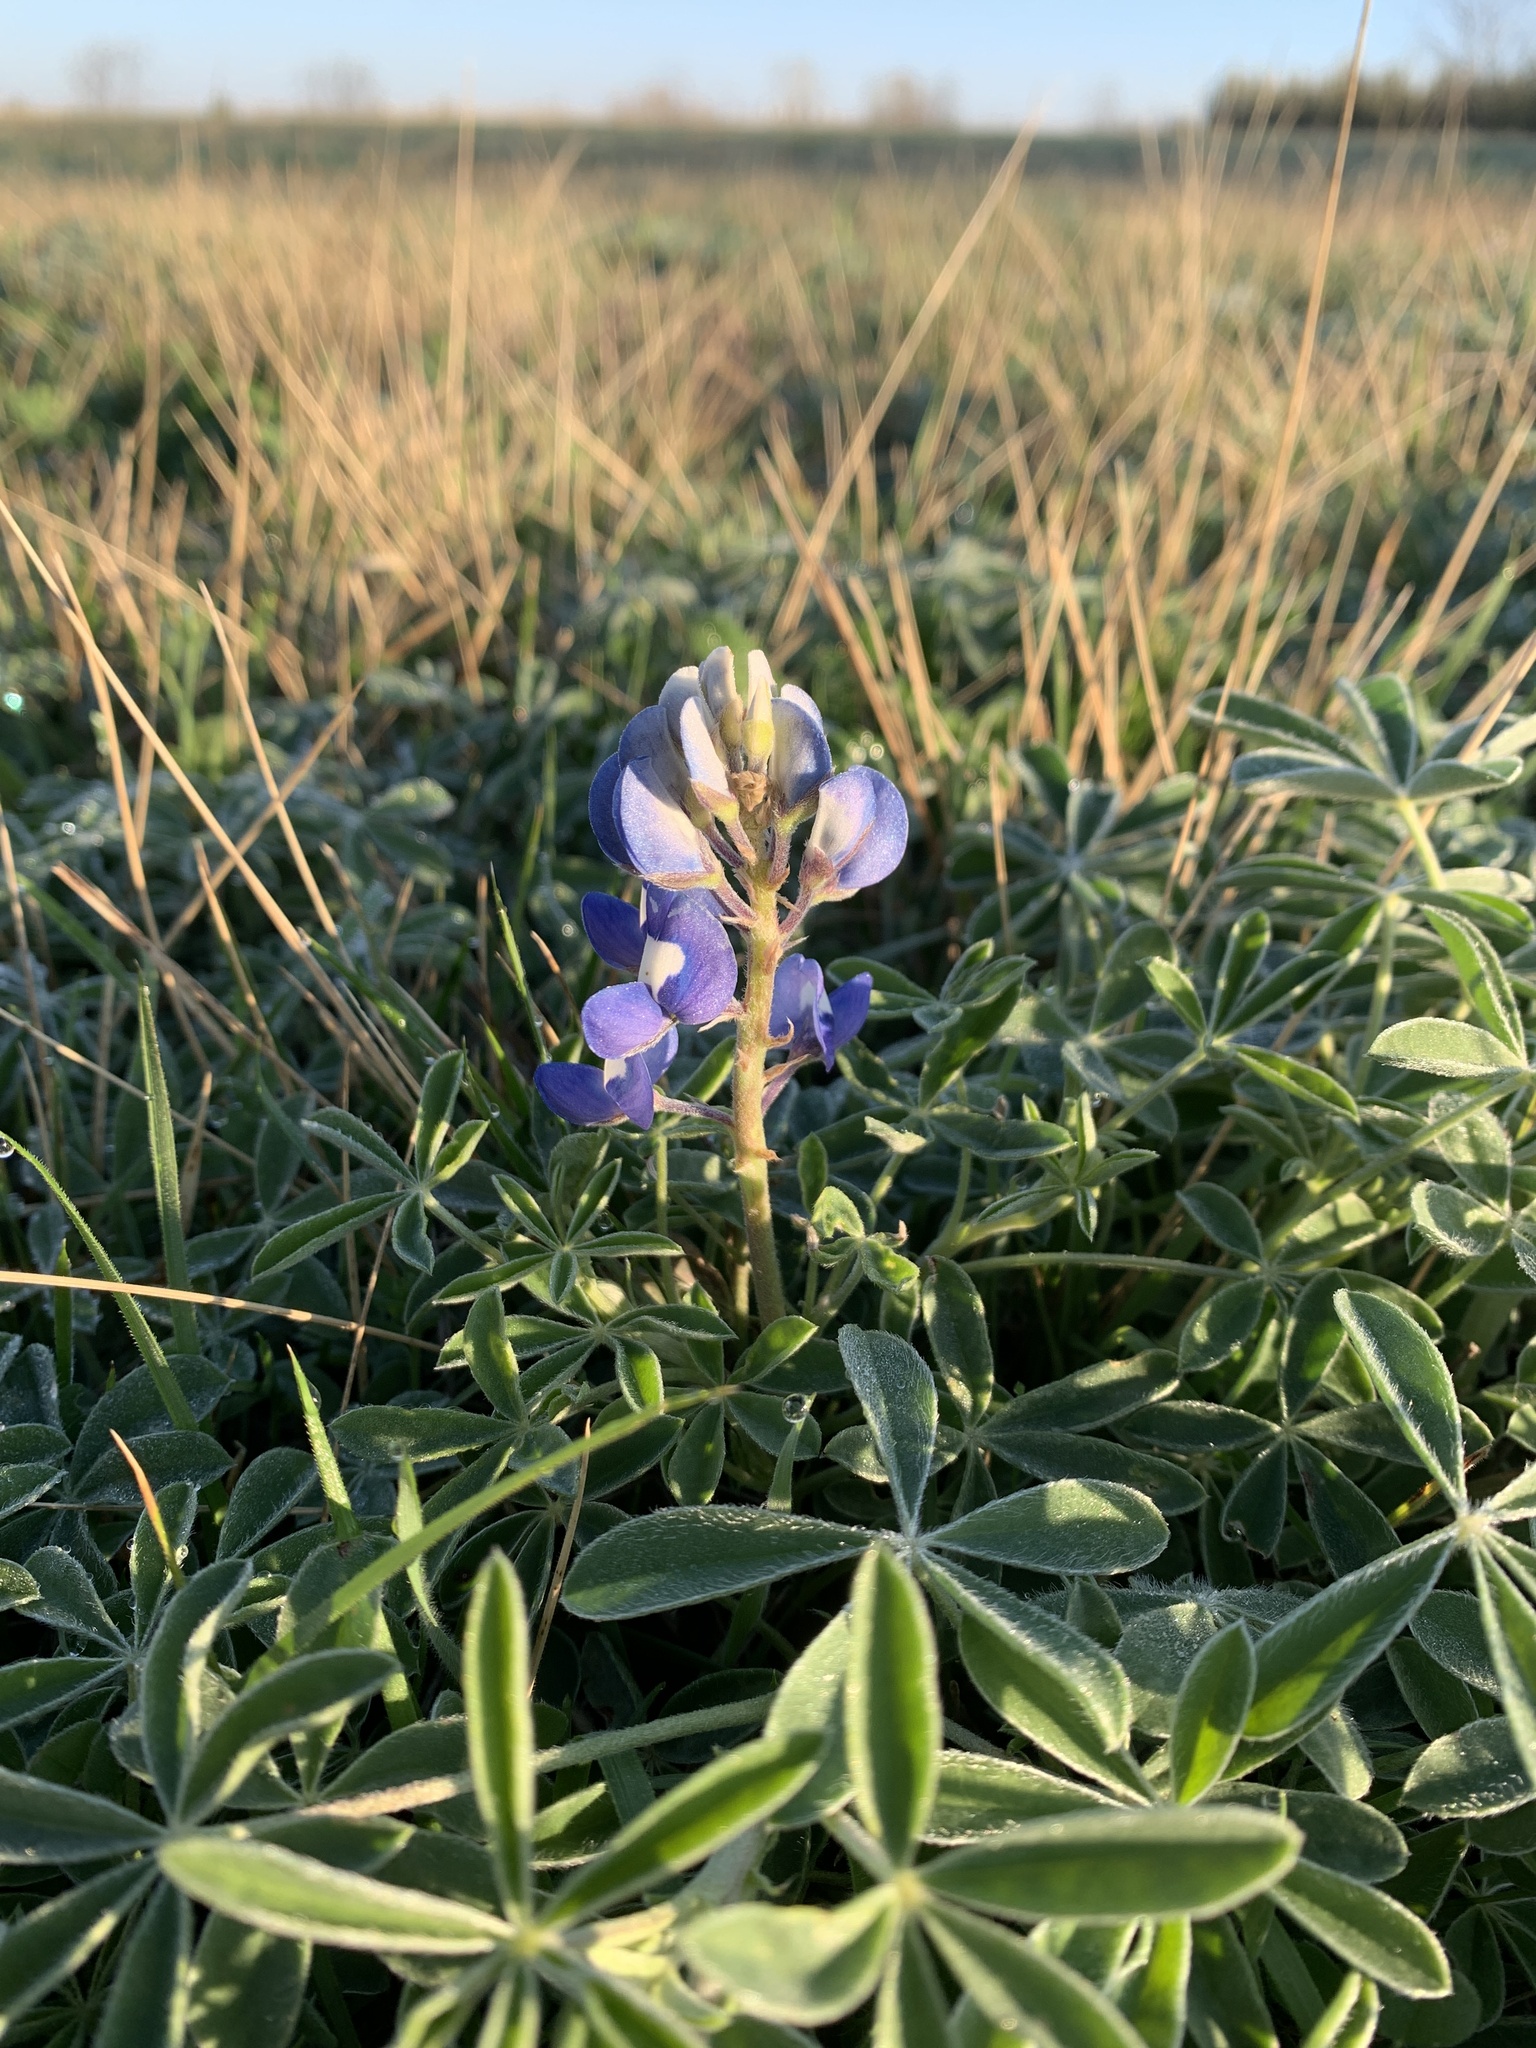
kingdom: Plantae
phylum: Tracheophyta
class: Magnoliopsida
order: Fabales
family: Fabaceae
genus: Lupinus
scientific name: Lupinus texensis
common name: Texas bluebonnet
